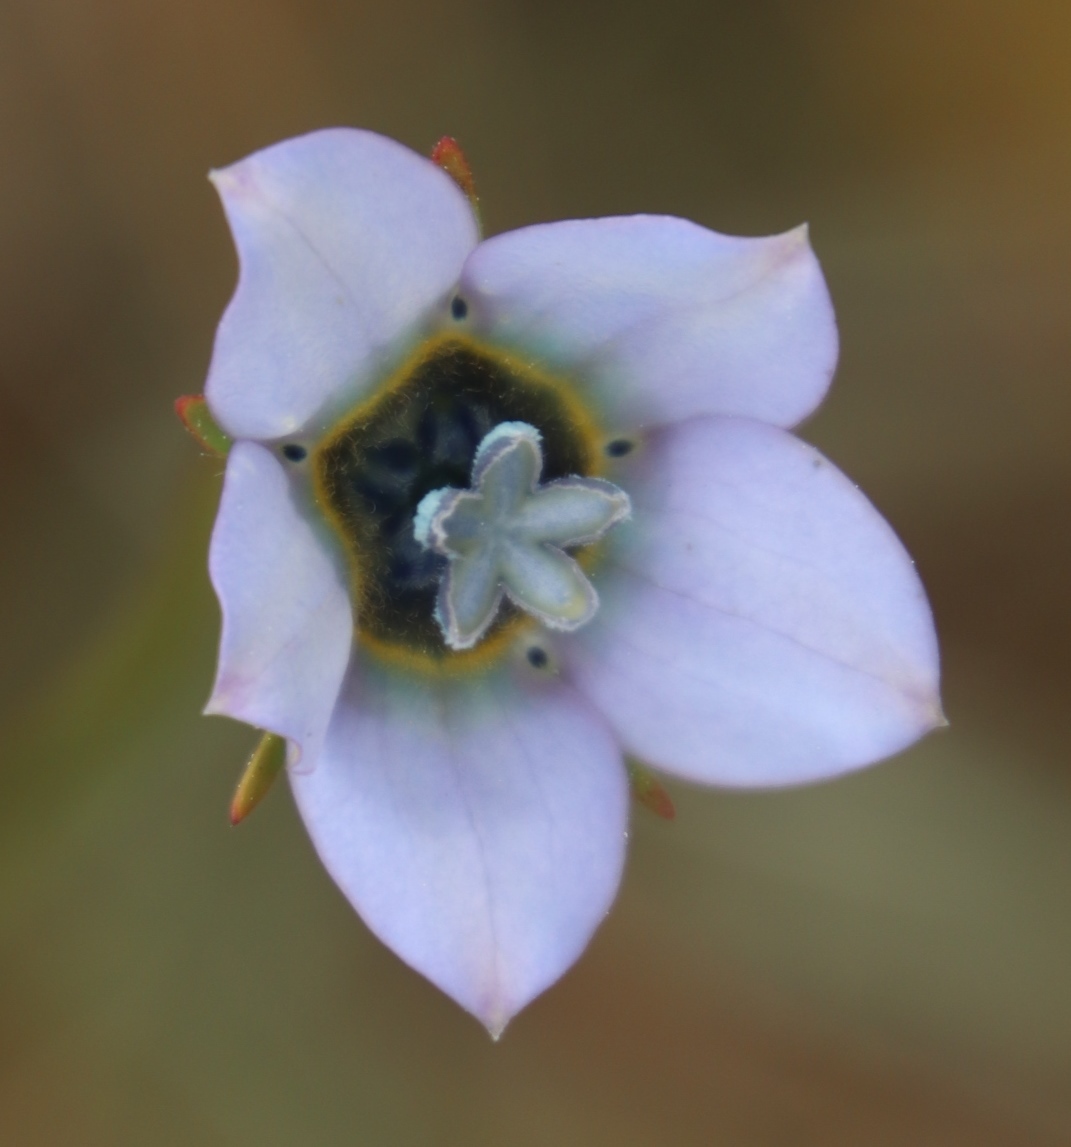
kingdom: Plantae
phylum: Tracheophyta
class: Magnoliopsida
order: Asterales
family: Campanulaceae
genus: Wahlenbergia
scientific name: Wahlenbergia capensis
